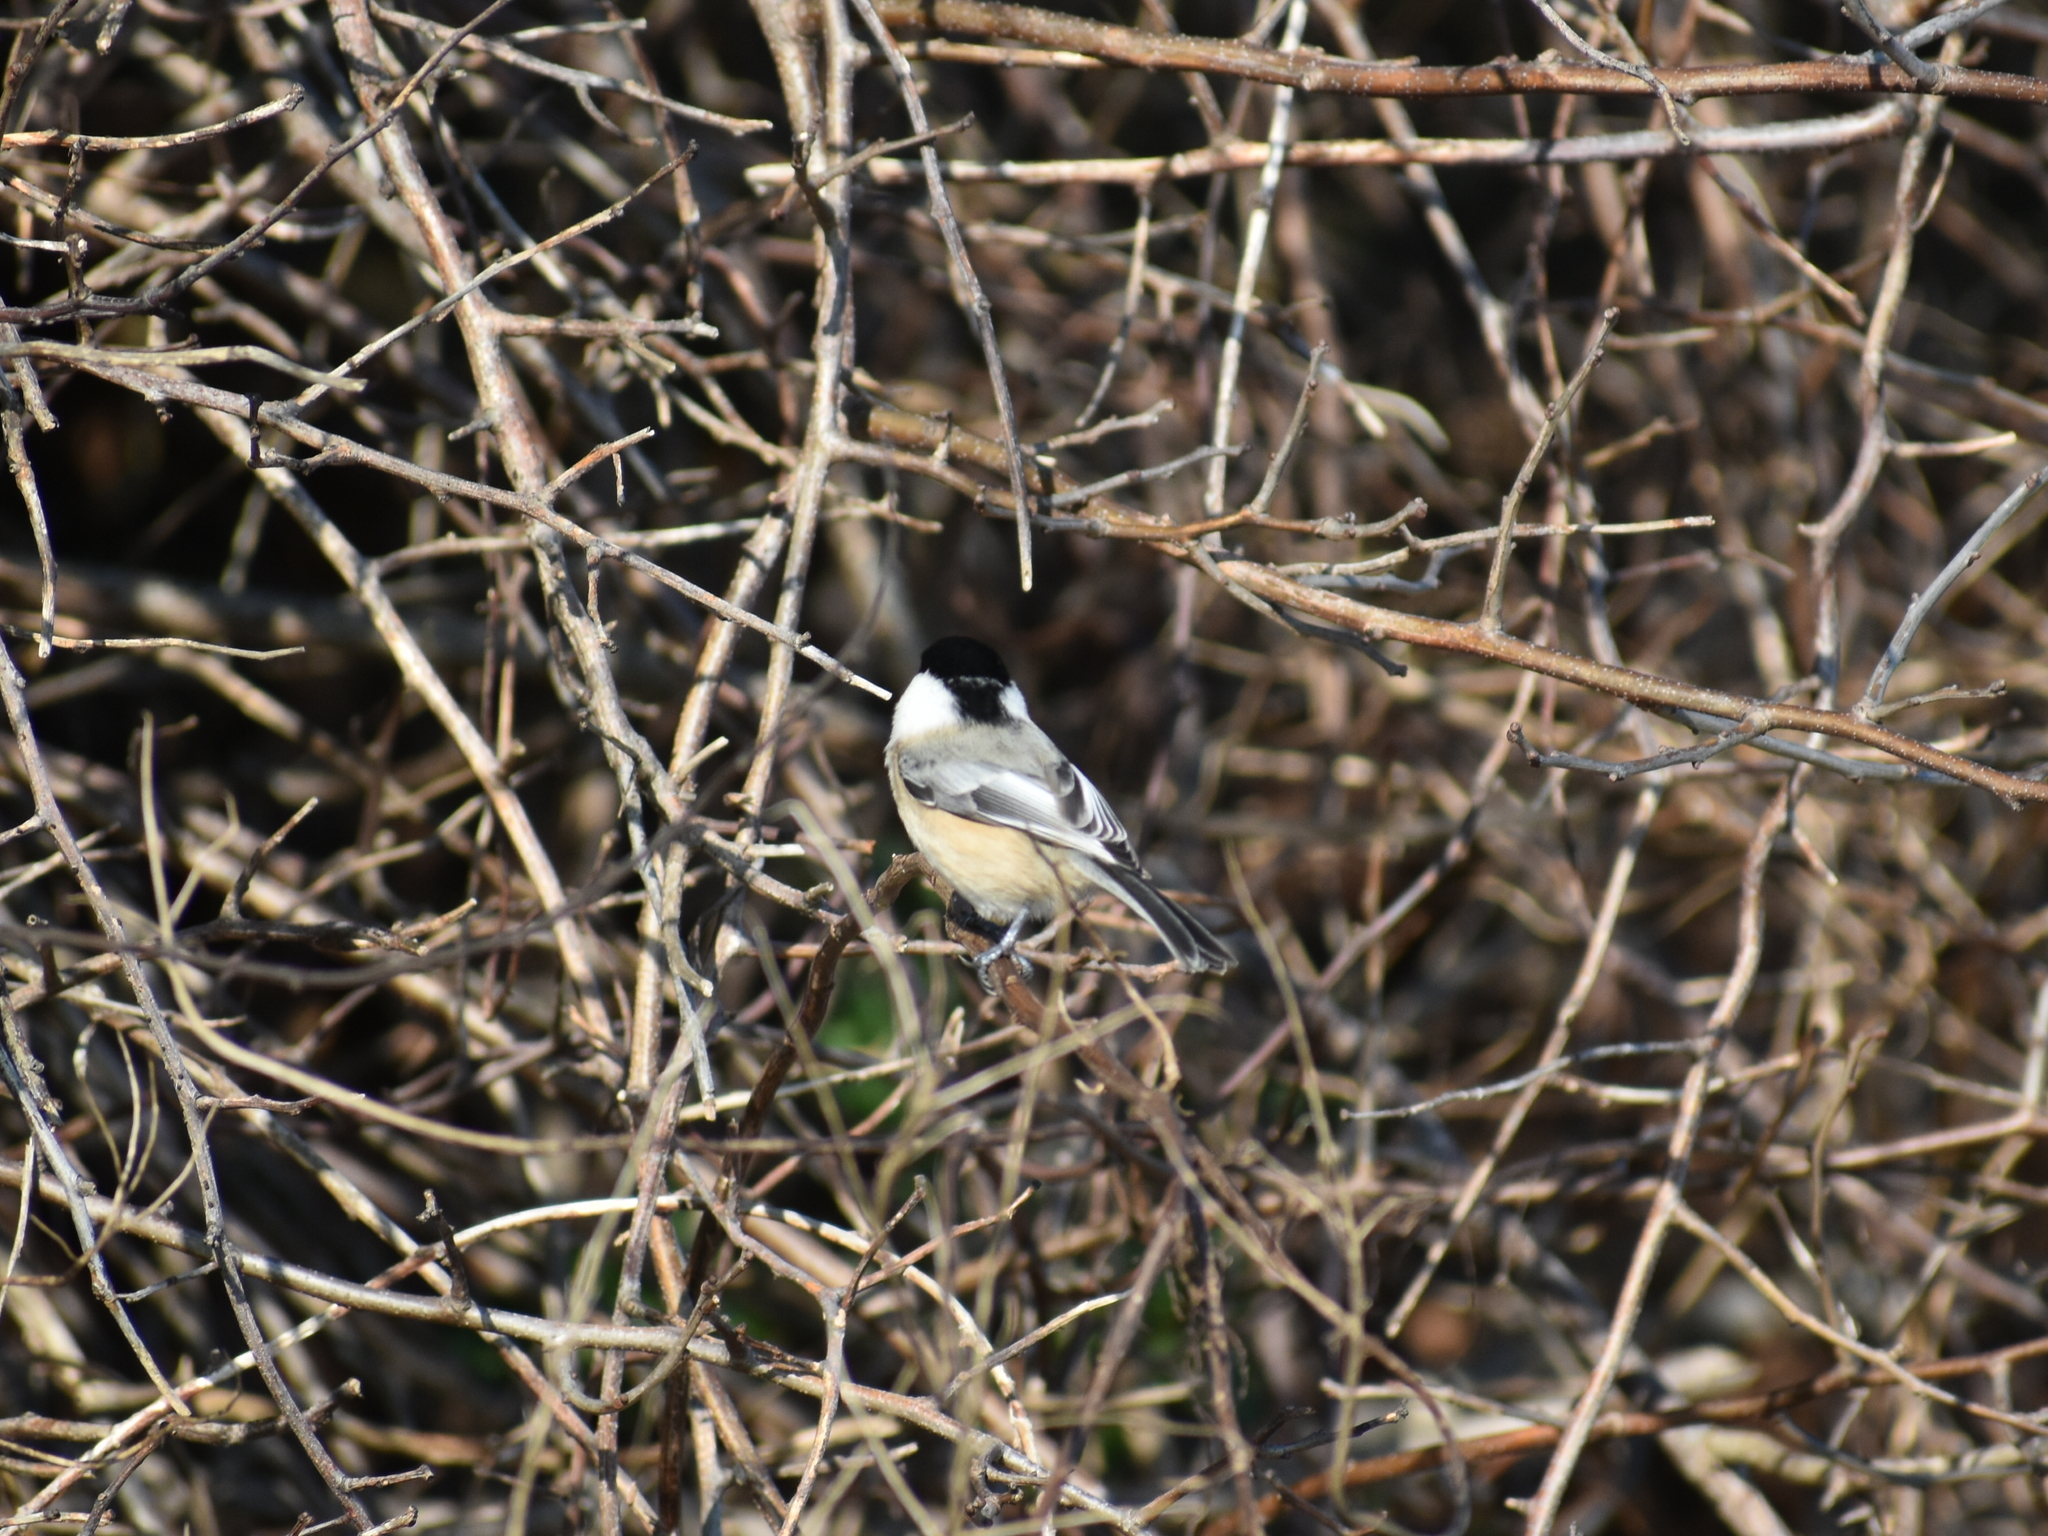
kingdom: Animalia
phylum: Chordata
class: Aves
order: Passeriformes
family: Paridae
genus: Poecile
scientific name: Poecile atricapillus
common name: Black-capped chickadee
